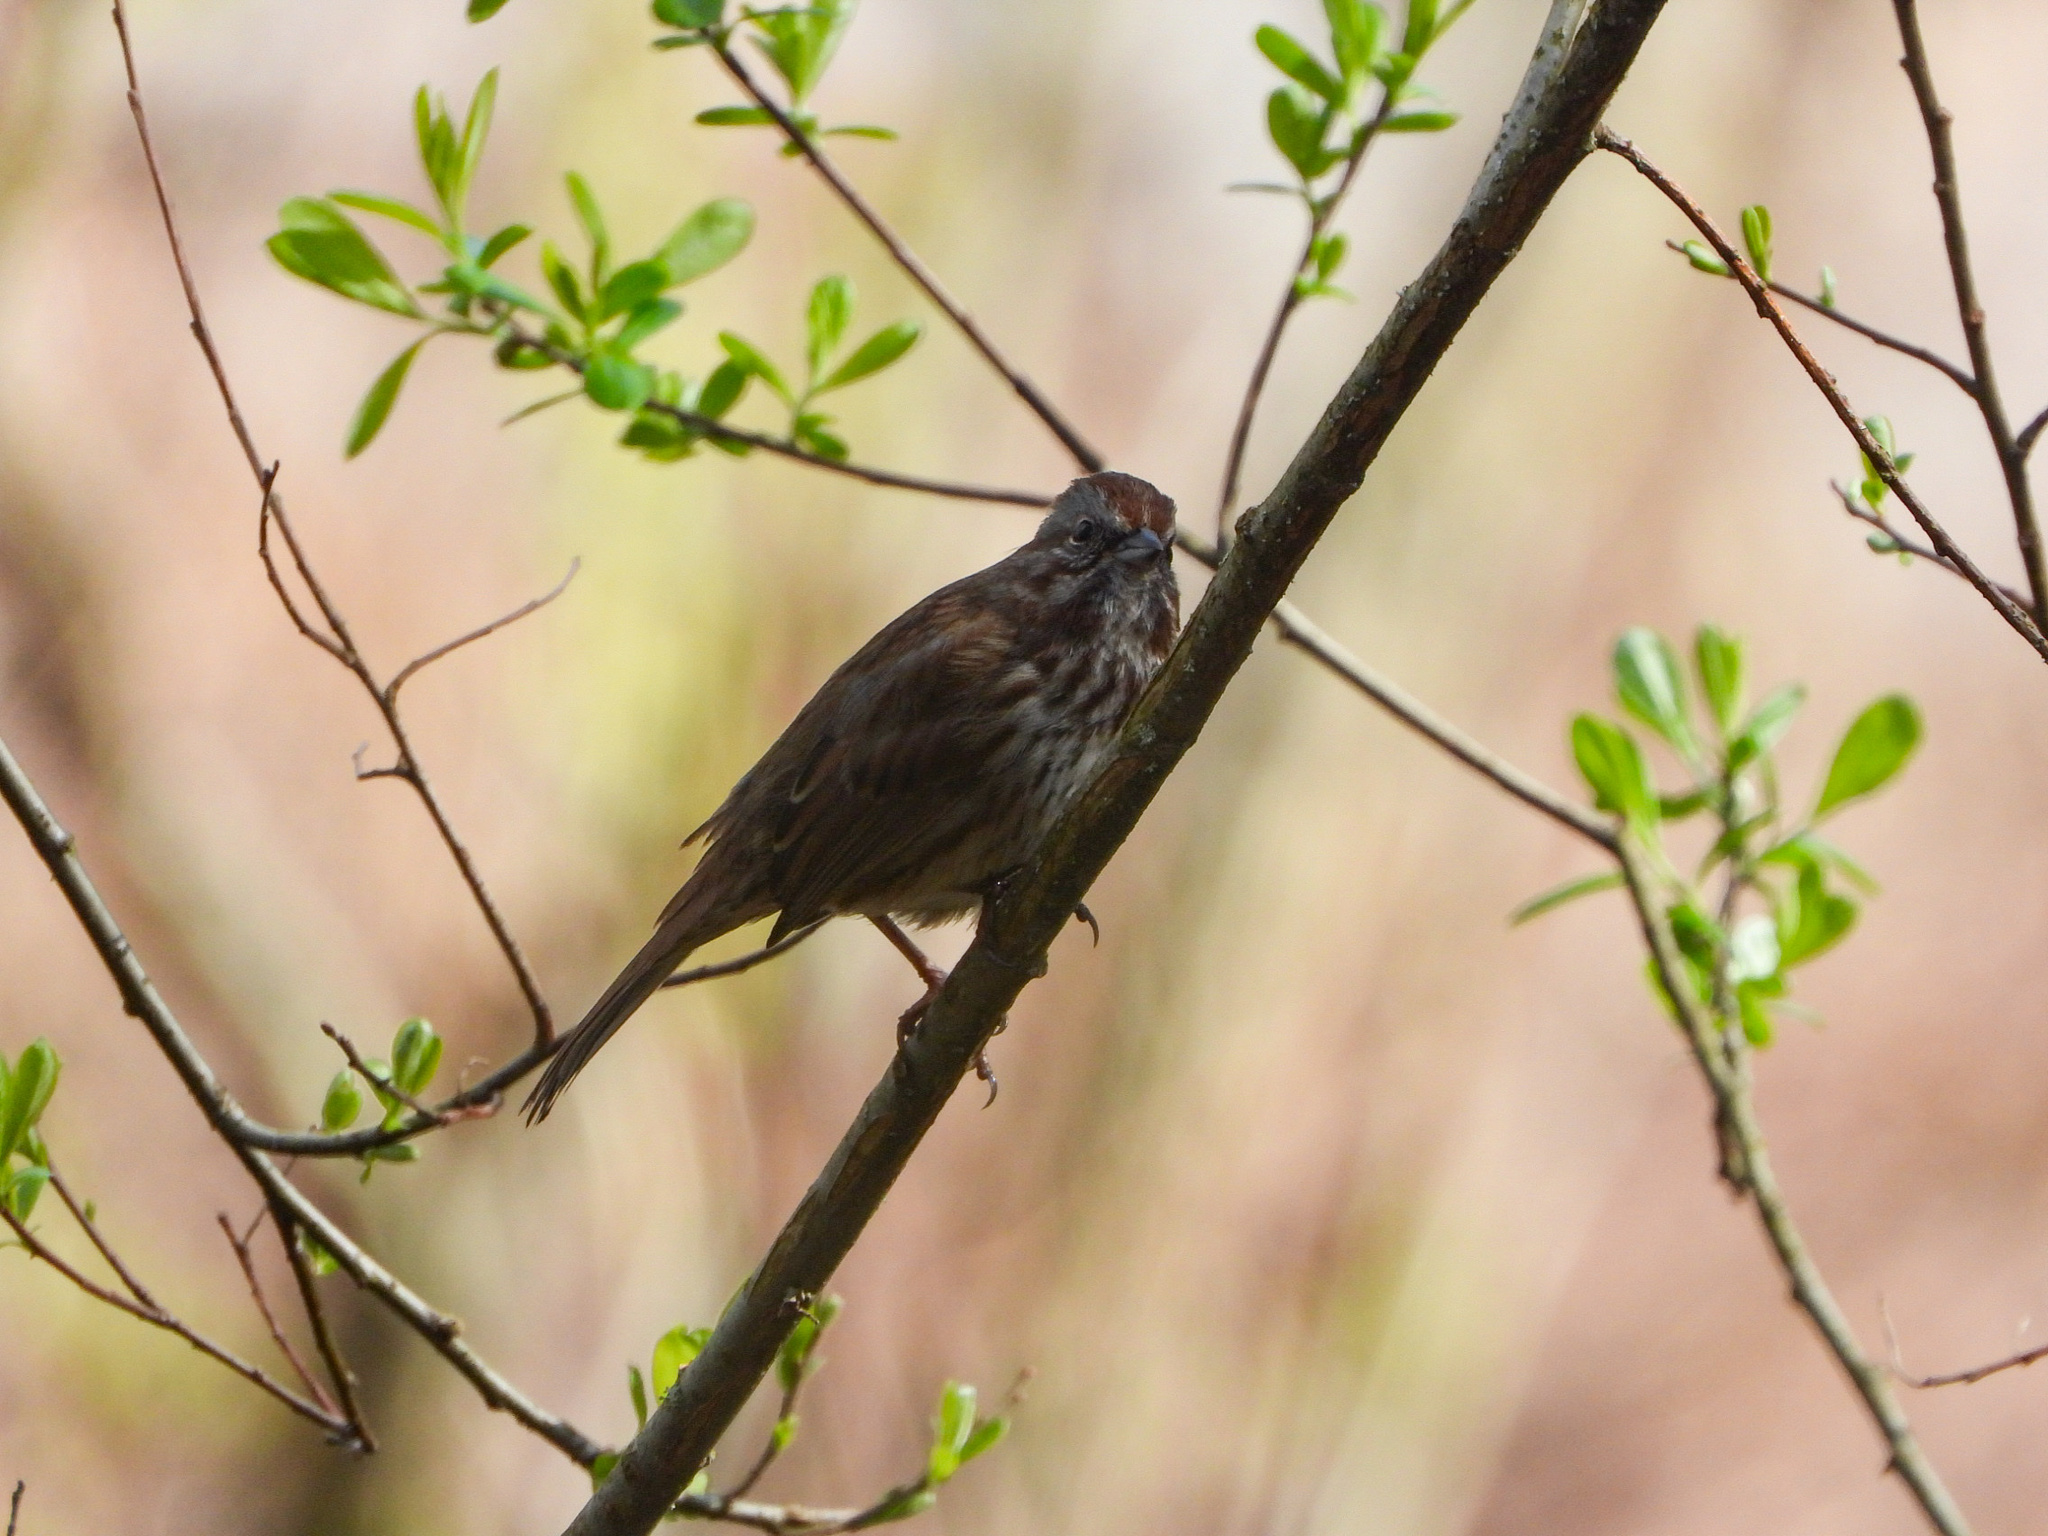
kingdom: Animalia
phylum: Chordata
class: Aves
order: Passeriformes
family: Passerellidae
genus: Melospiza
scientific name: Melospiza melodia
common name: Song sparrow
